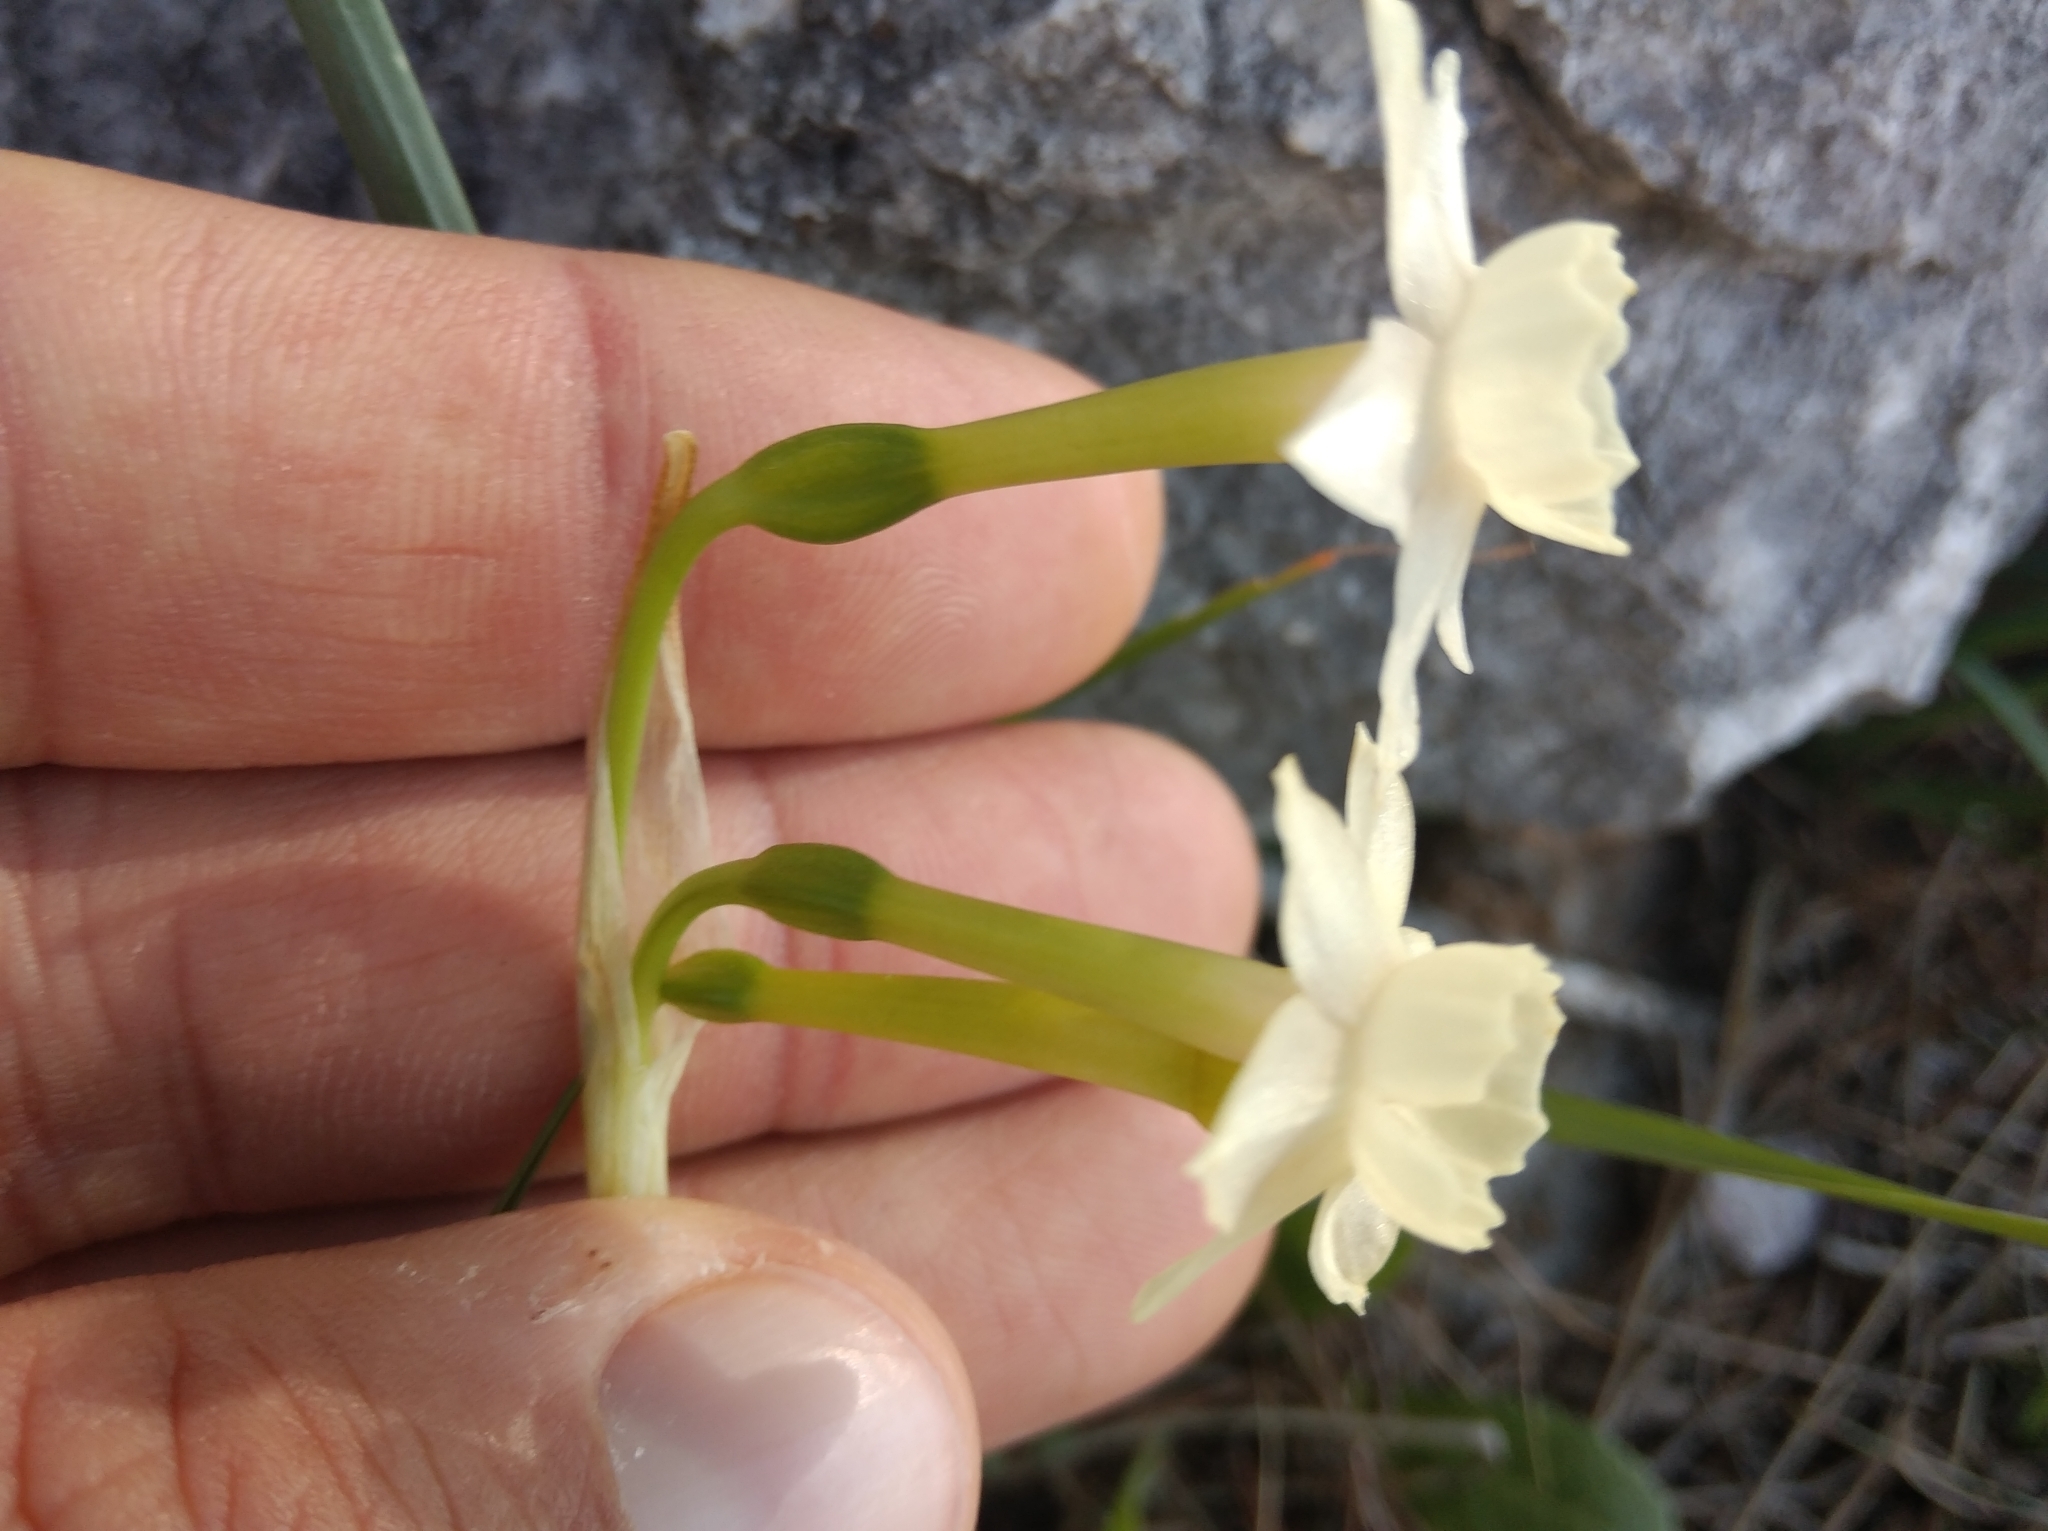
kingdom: Plantae
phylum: Tracheophyta
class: Liliopsida
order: Asparagales
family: Amaryllidaceae
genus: Narcissus
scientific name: Narcissus dubius
